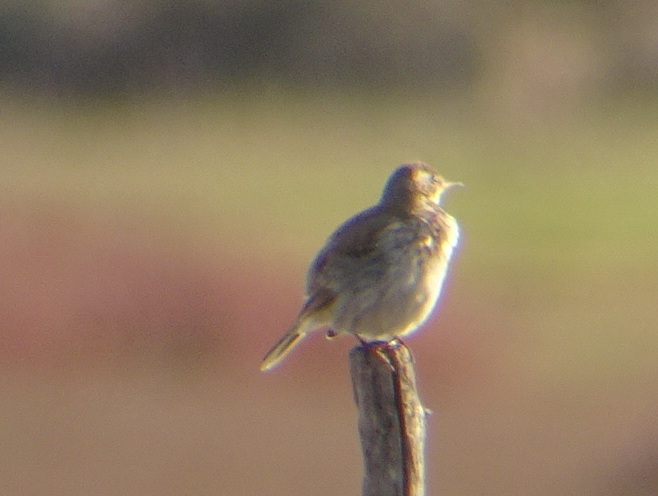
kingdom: Animalia
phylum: Chordata
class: Aves
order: Passeriformes
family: Motacillidae
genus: Anthus
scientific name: Anthus spinoletta
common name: Water pipit
